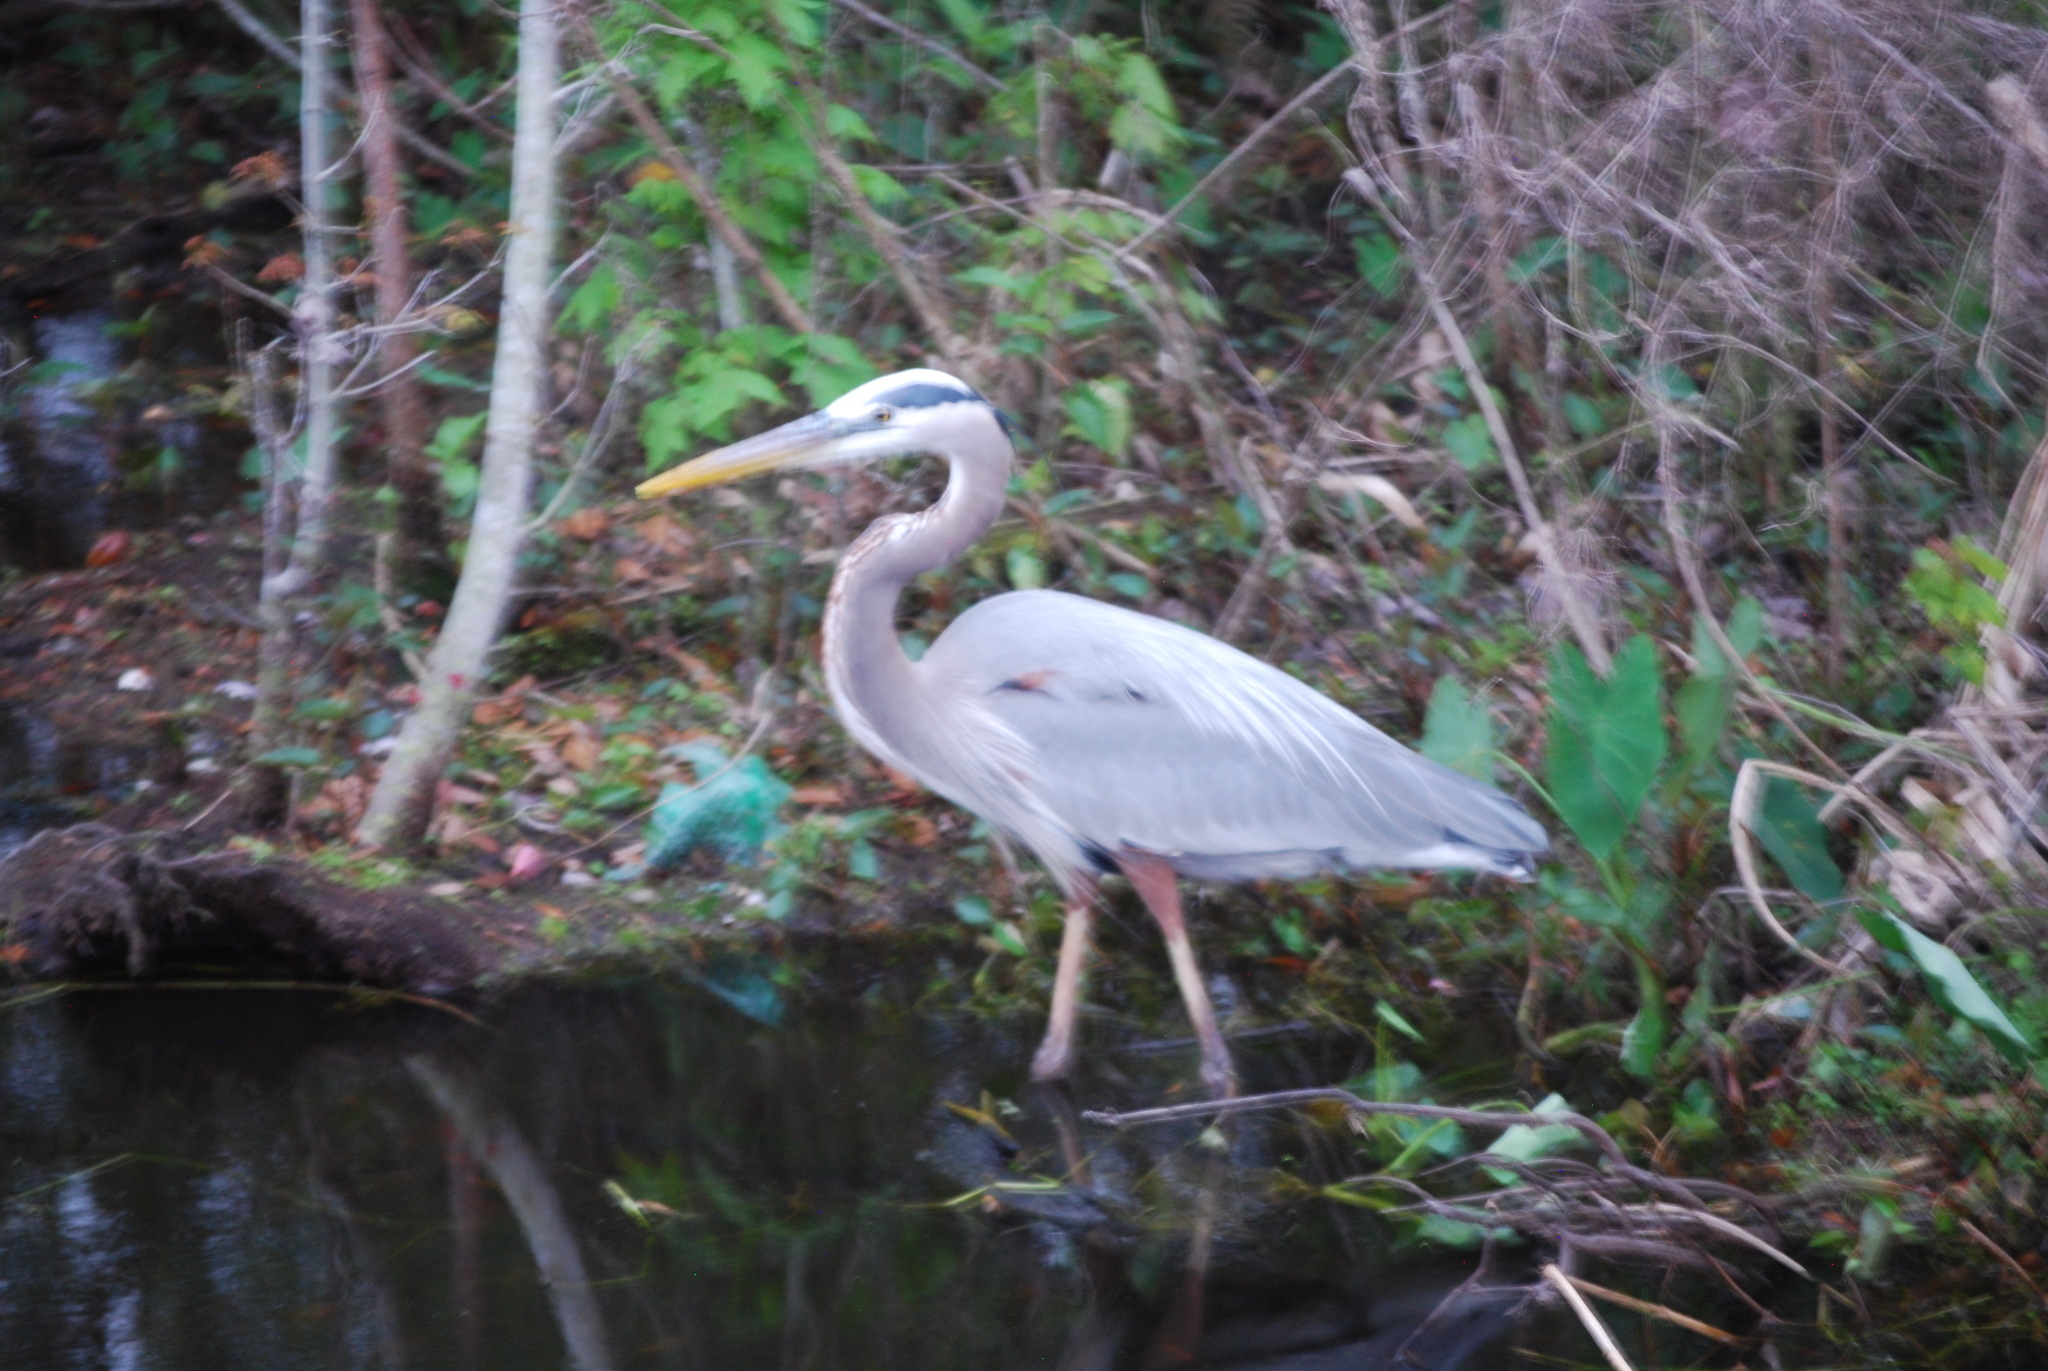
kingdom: Animalia
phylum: Chordata
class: Aves
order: Pelecaniformes
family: Ardeidae
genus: Ardea
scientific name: Ardea herodias
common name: Great blue heron
